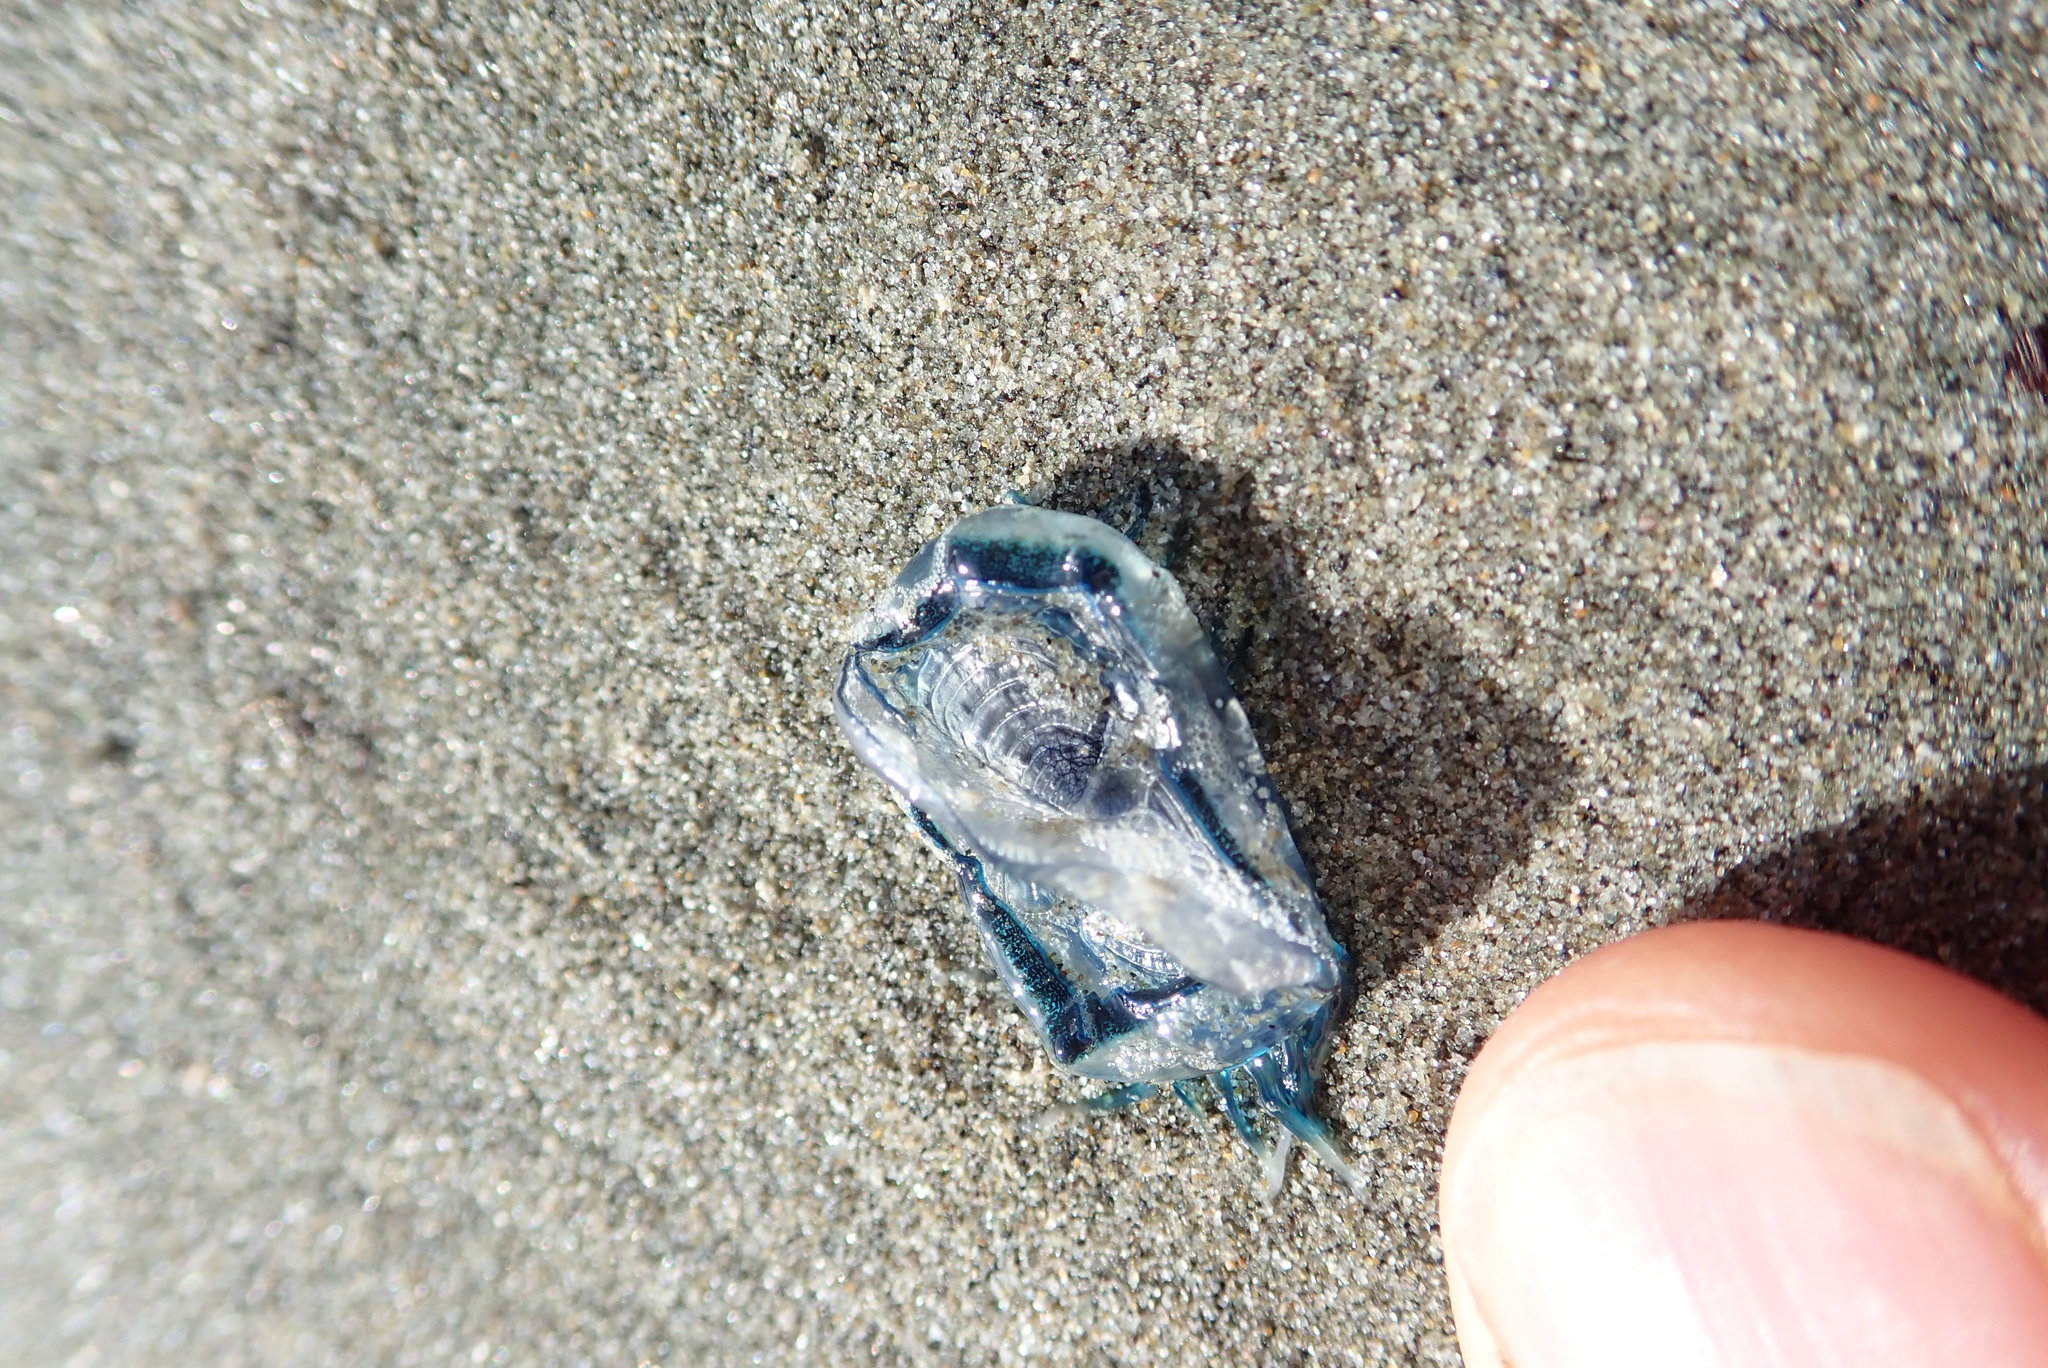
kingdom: Animalia
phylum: Cnidaria
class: Hydrozoa
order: Anthoathecata
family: Porpitidae
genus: Velella
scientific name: Velella velella
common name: By-the-wind-sailor
